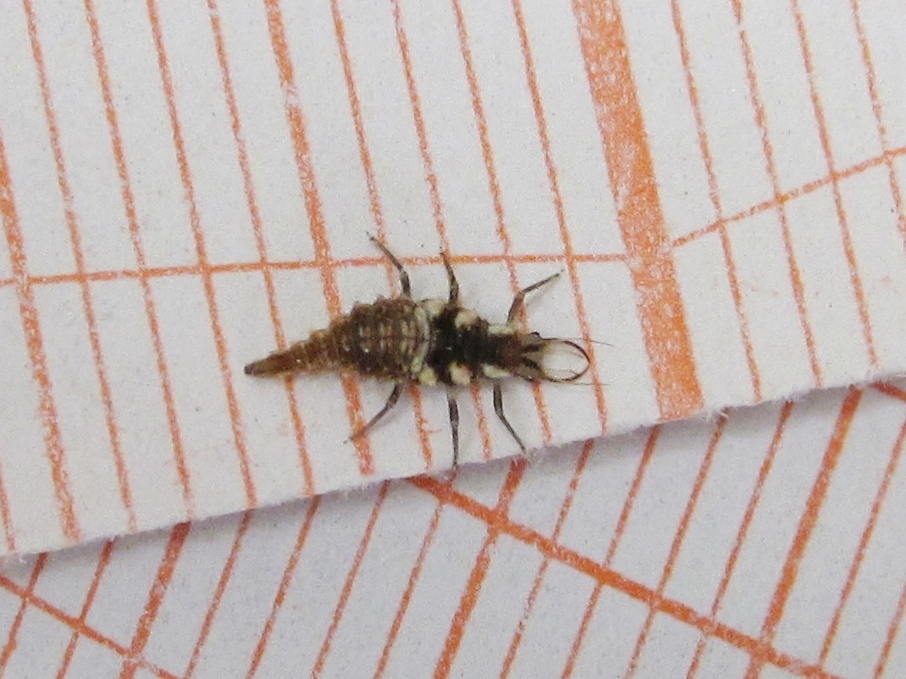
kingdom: Animalia
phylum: Arthropoda
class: Insecta
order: Neuroptera
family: Chrysopidae
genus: Chrysoperla
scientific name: Chrysoperla rufilabris
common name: Red-lipped green lacewing
